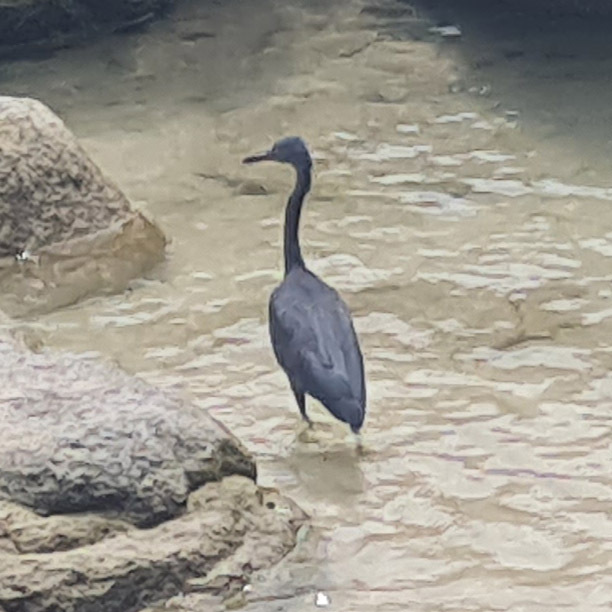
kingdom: Animalia
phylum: Chordata
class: Aves
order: Pelecaniformes
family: Ardeidae
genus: Egretta
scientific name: Egretta sacra
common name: Pacific reef heron
